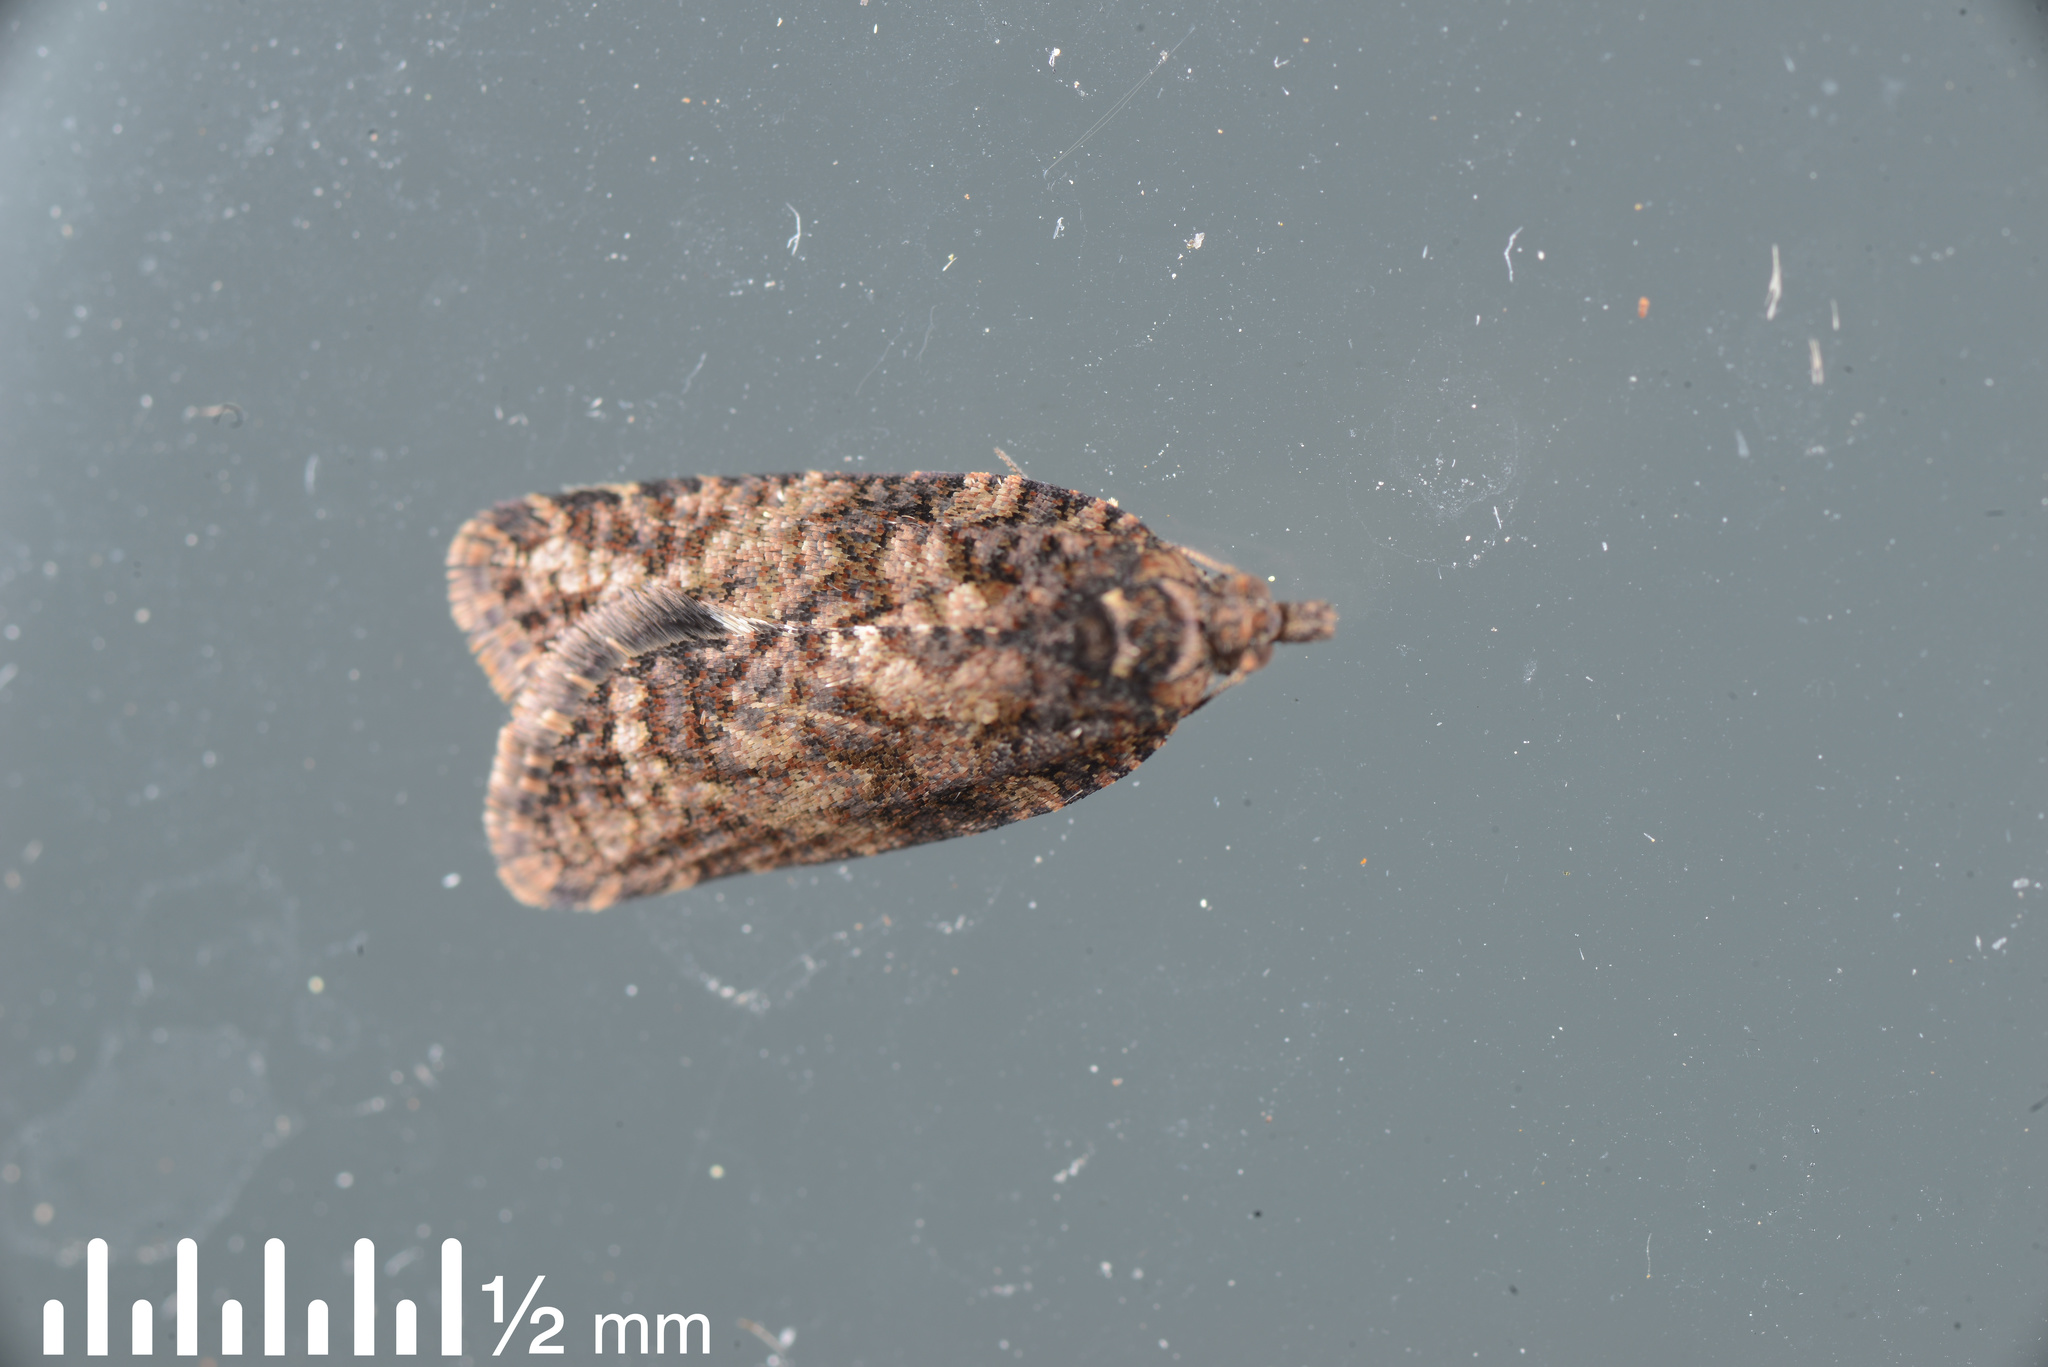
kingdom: Animalia
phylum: Arthropoda
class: Insecta
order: Lepidoptera
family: Tortricidae
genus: Capua
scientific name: Capua intractana
